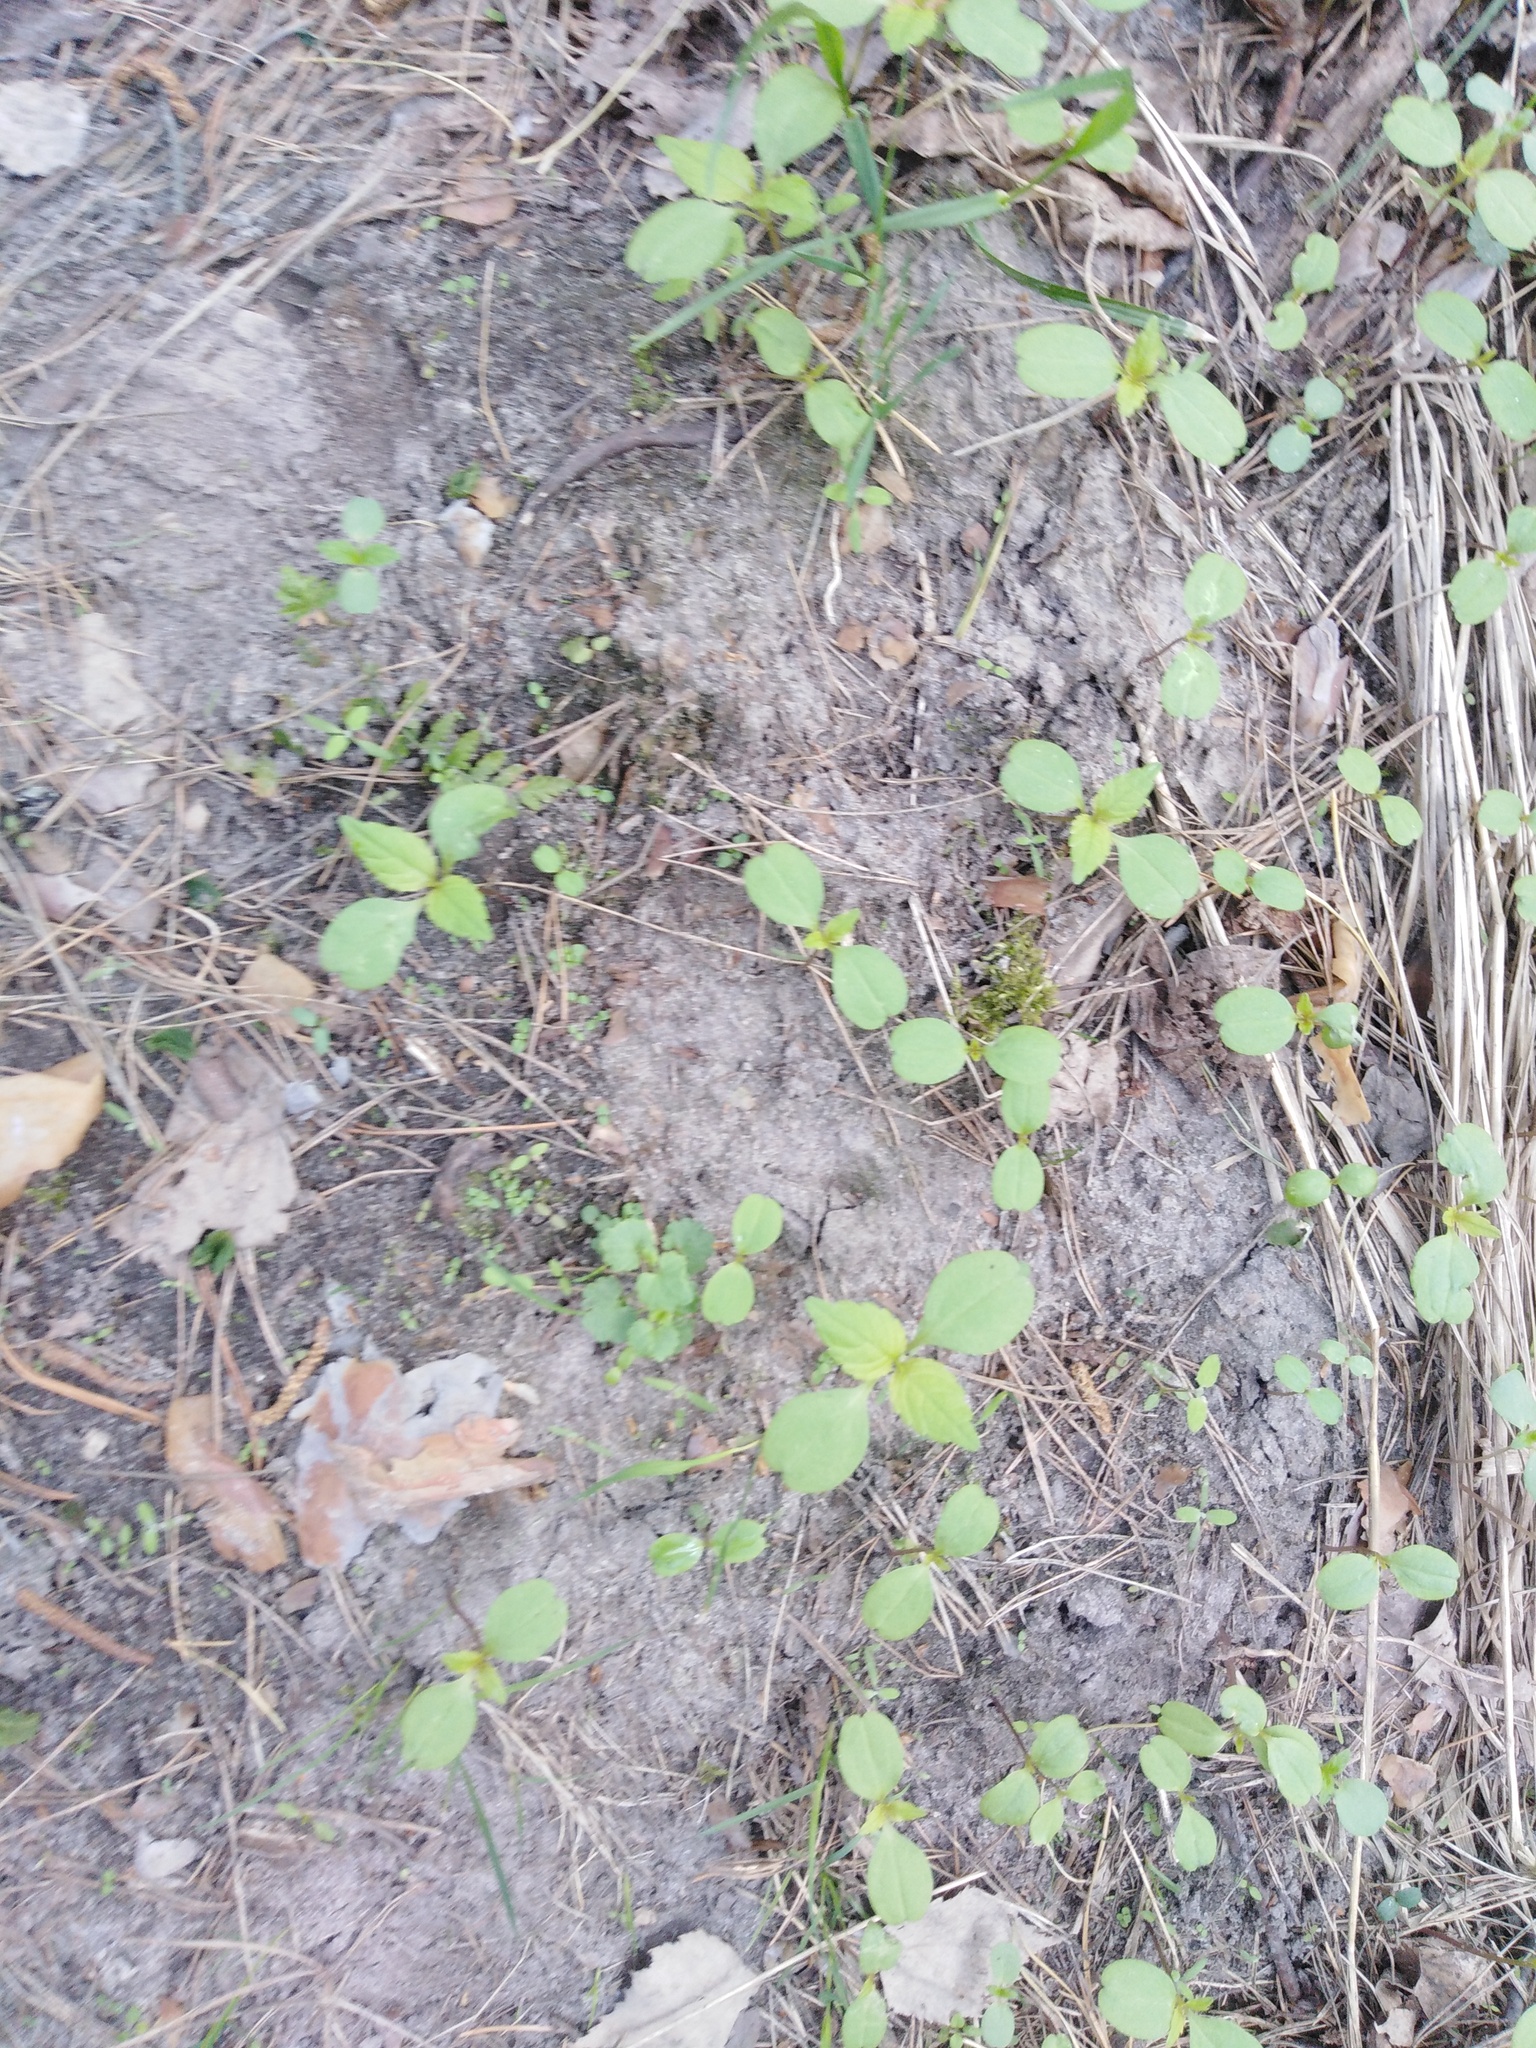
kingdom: Plantae
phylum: Tracheophyta
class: Magnoliopsida
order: Ericales
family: Balsaminaceae
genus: Impatiens
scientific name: Impatiens parviflora
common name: Small balsam
